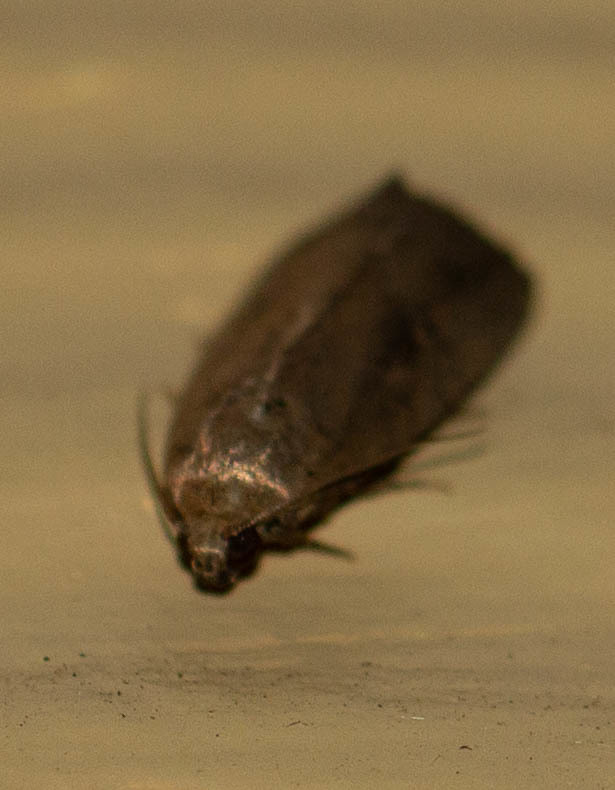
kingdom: Animalia
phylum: Arthropoda
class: Insecta
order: Lepidoptera
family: Noctuidae
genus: Elaphria
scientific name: Elaphria nucicolora
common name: Sugarcane midget moth
